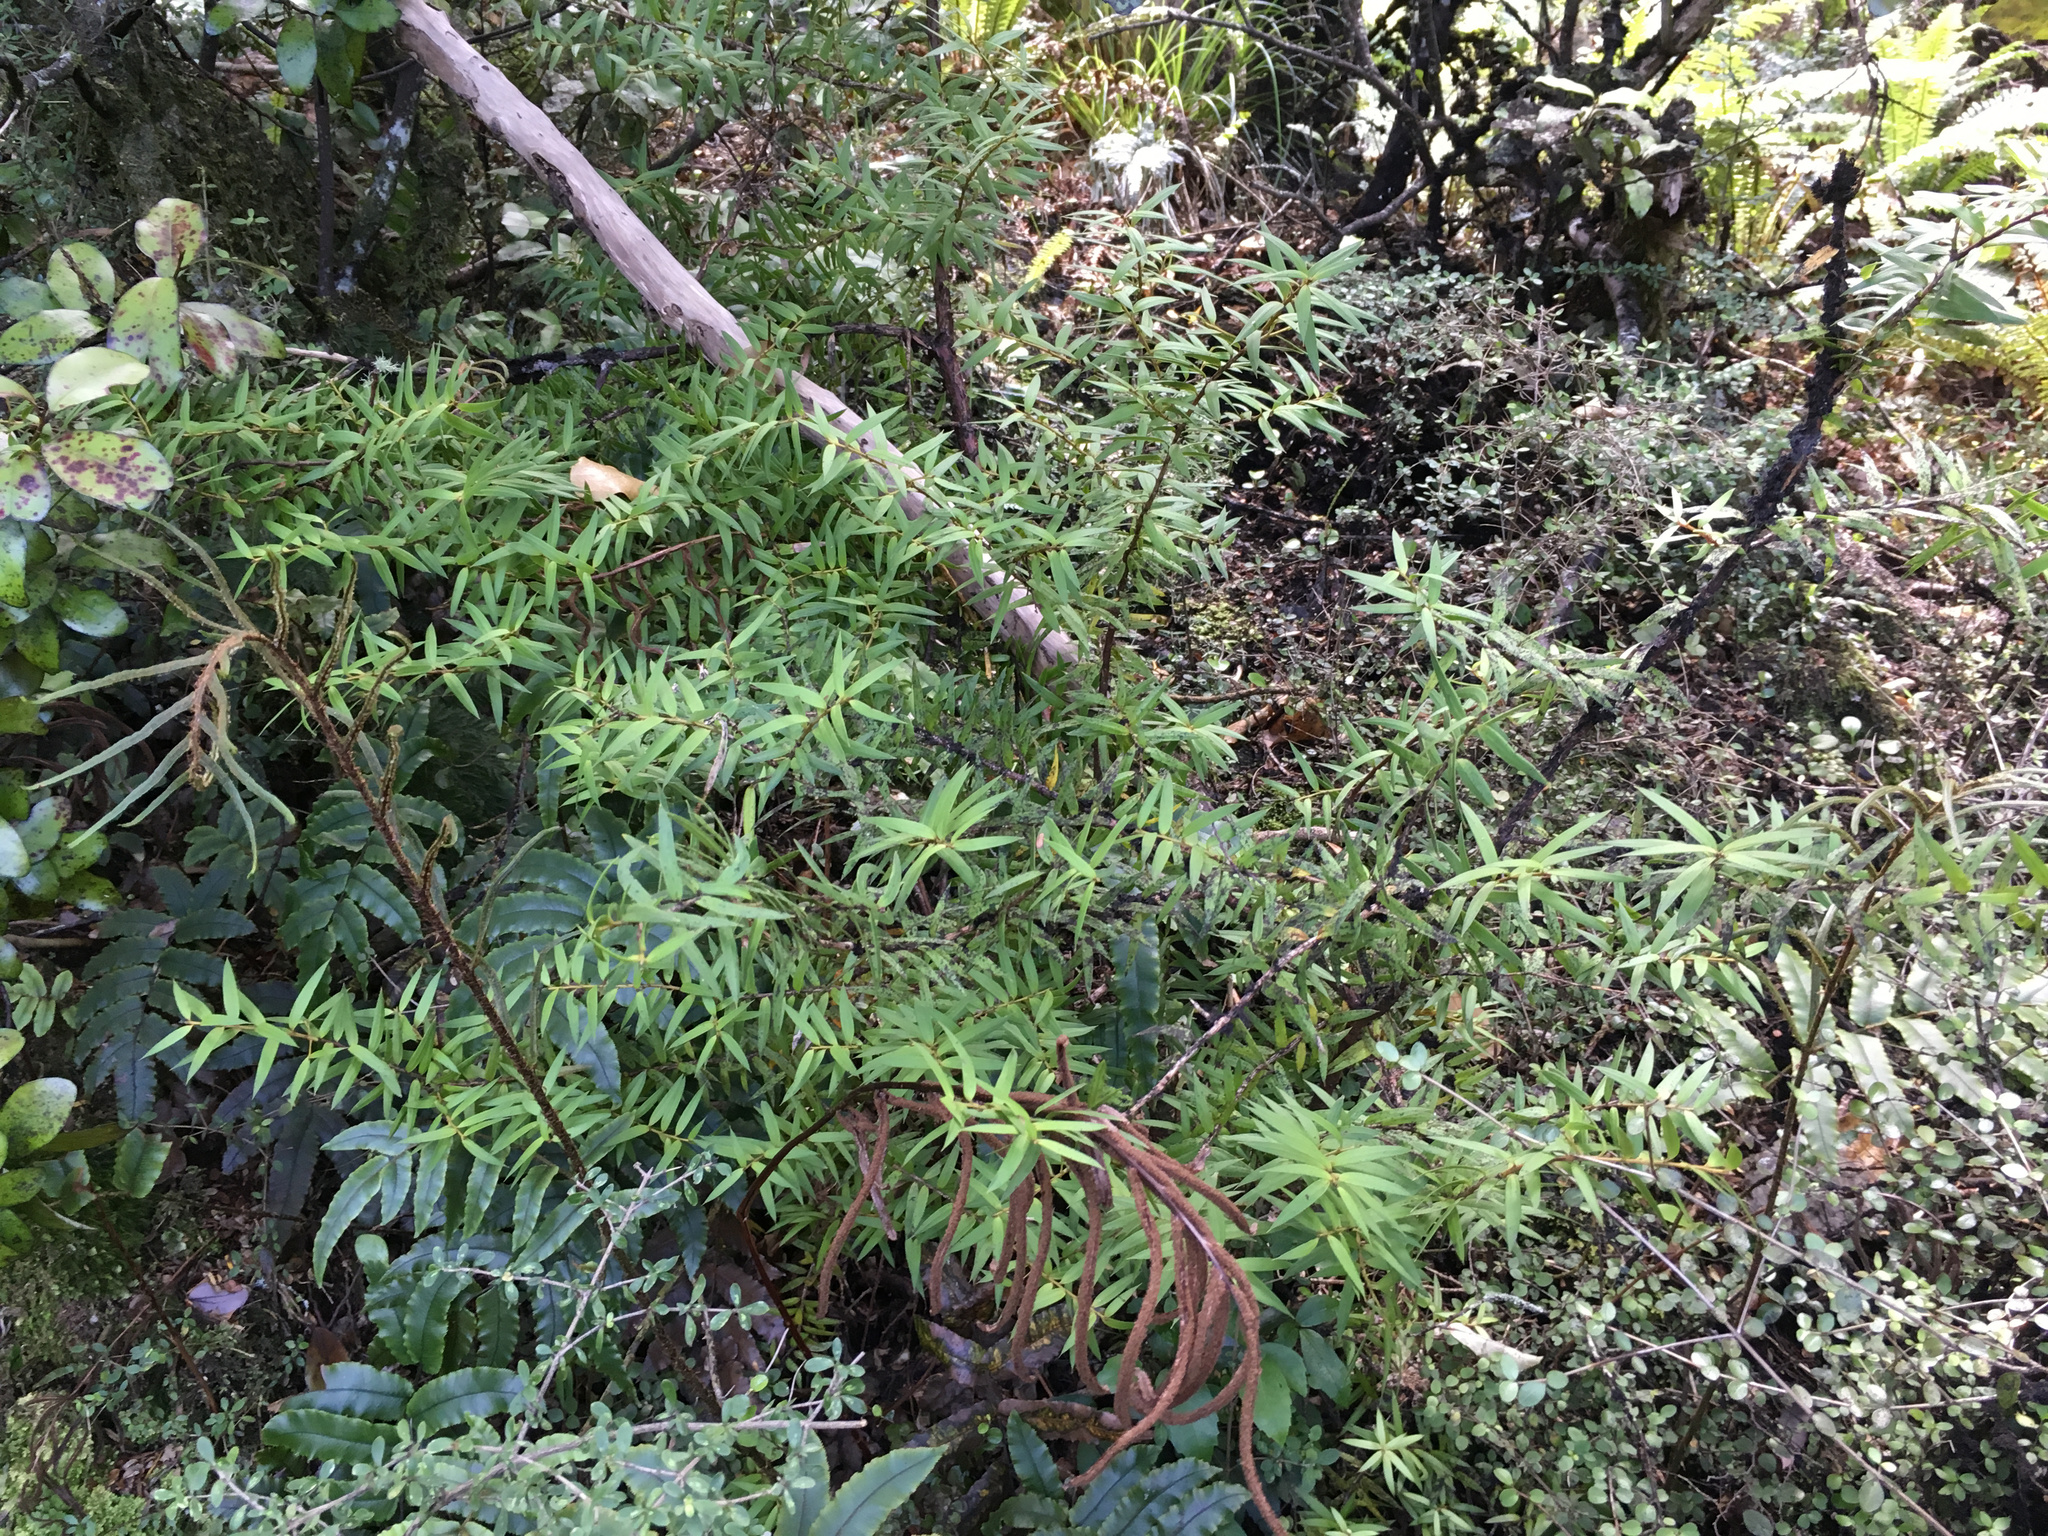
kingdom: Plantae
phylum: Tracheophyta
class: Pinopsida
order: Pinales
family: Podocarpaceae
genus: Podocarpus
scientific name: Podocarpus totara
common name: Totara
